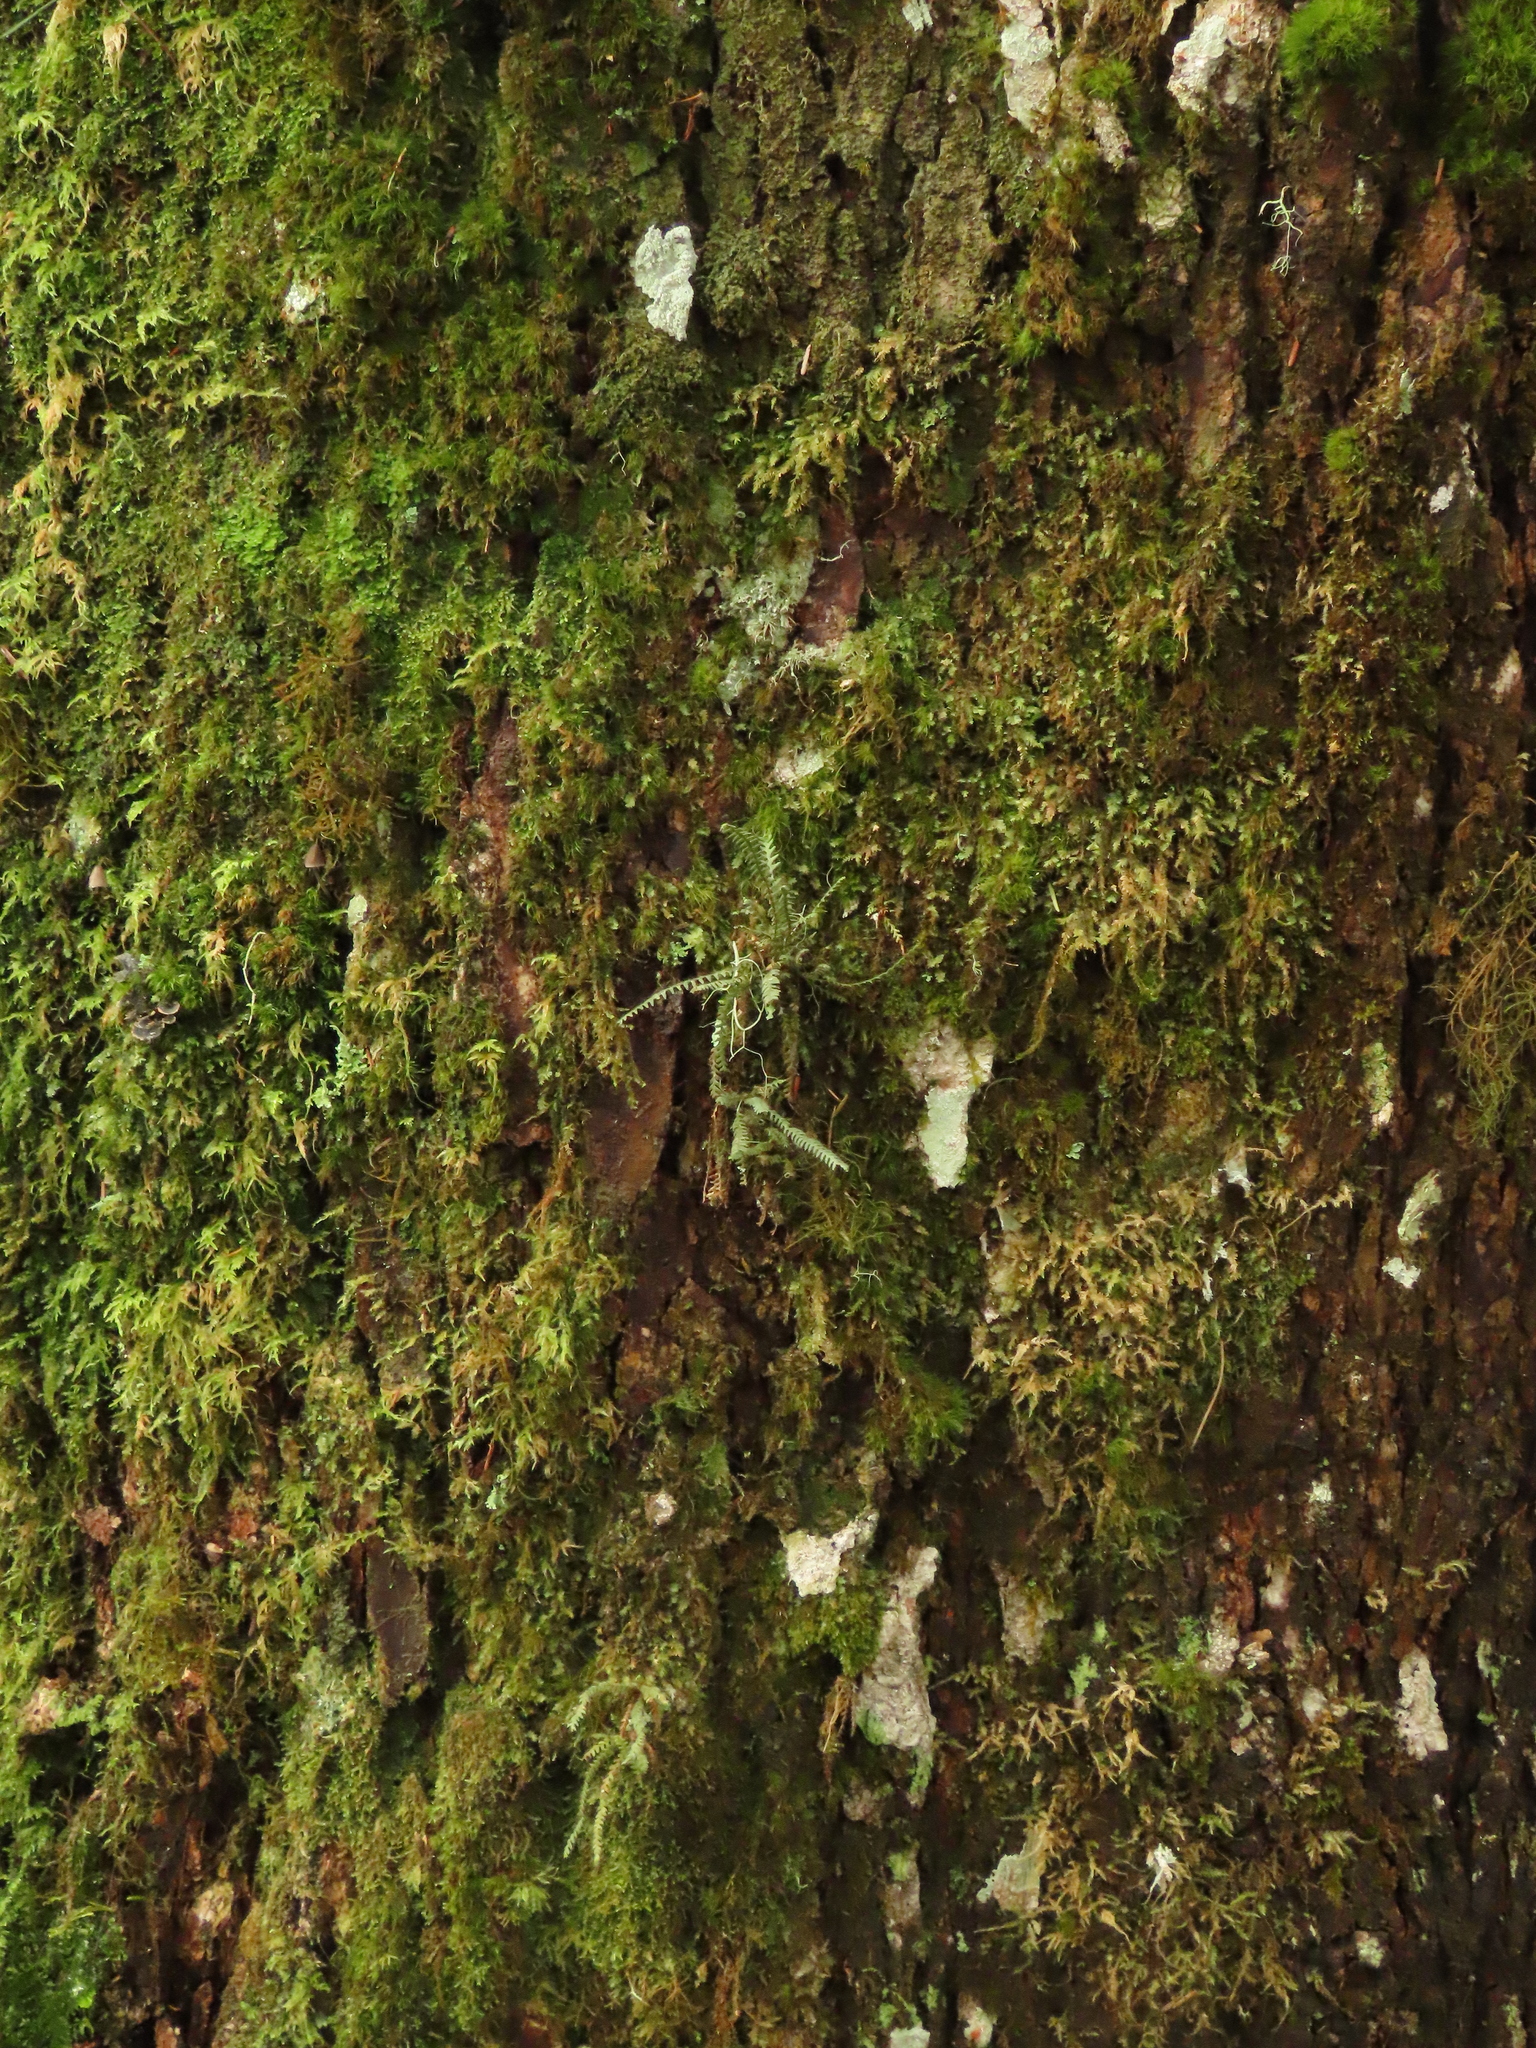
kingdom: Plantae
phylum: Tracheophyta
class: Polypodiopsida
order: Polypodiales
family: Polypodiaceae
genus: Micropolypodium
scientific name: Micropolypodium okuboi
